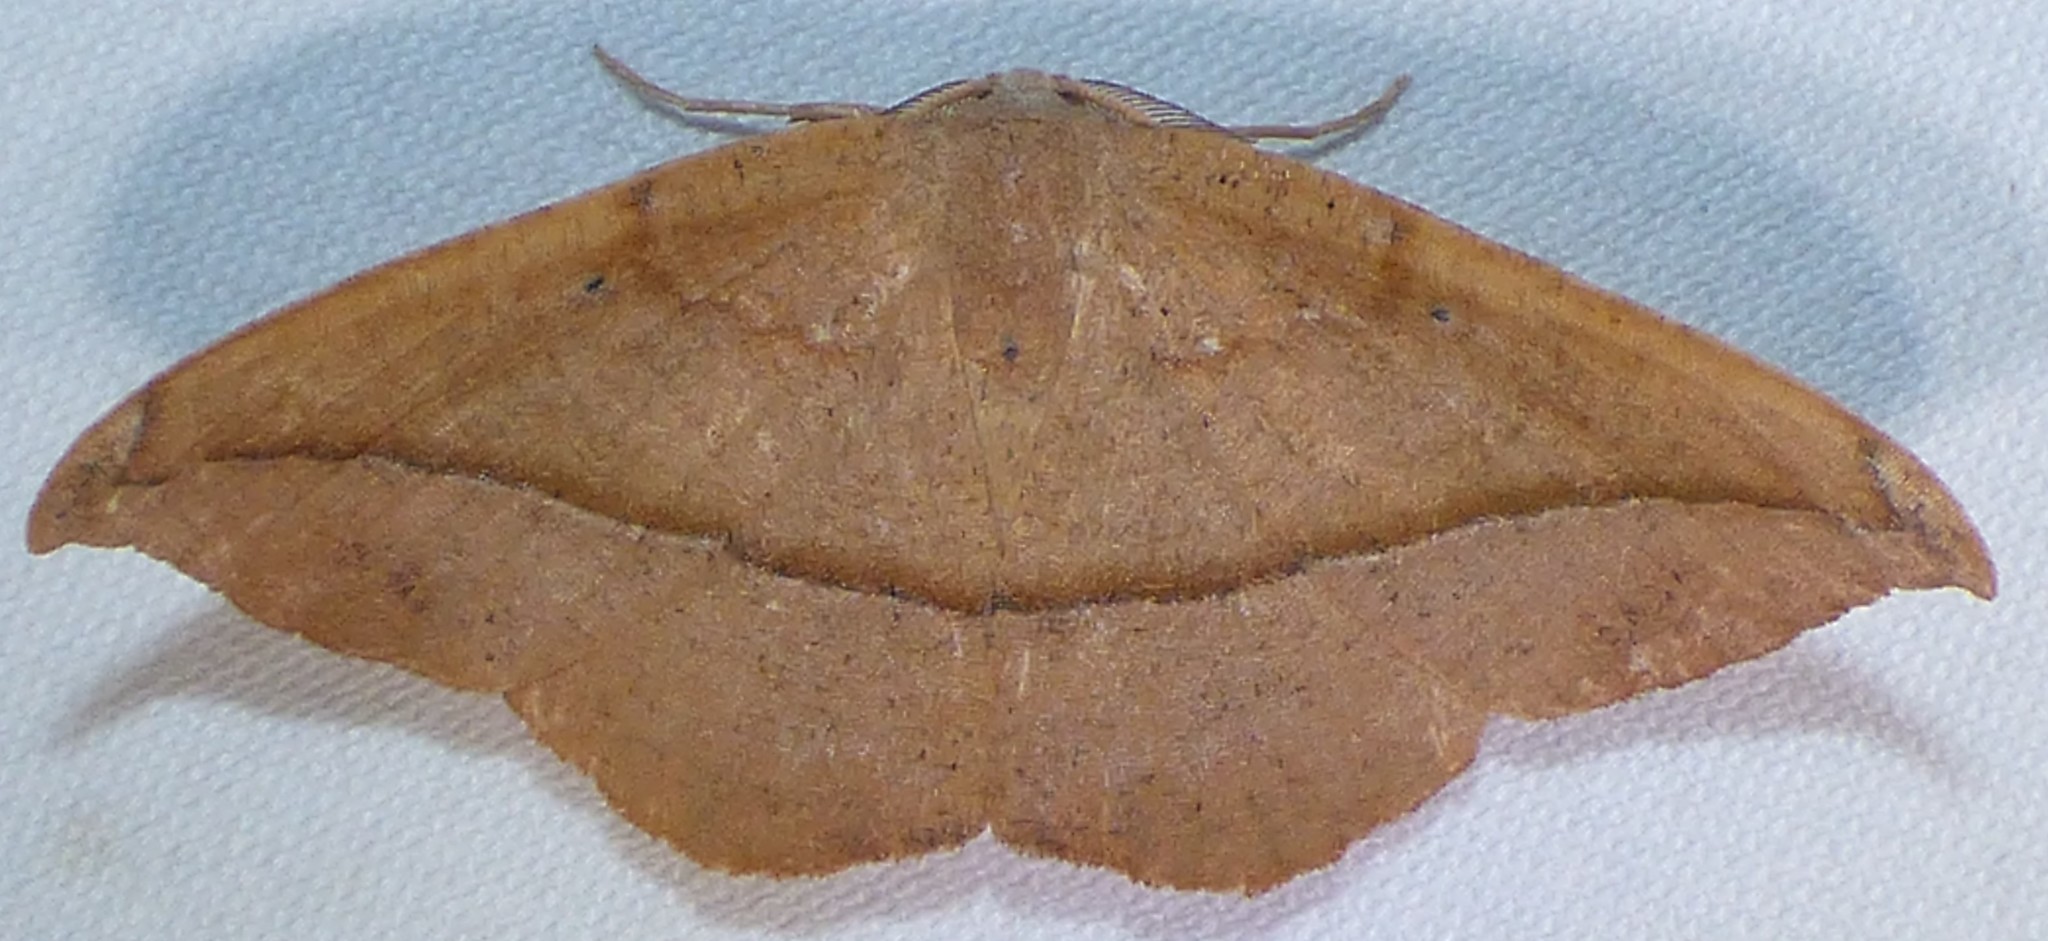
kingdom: Animalia
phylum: Arthropoda
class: Insecta
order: Lepidoptera
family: Geometridae
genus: Patalene
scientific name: Patalene olyzonaria
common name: Juniper geometer moth
